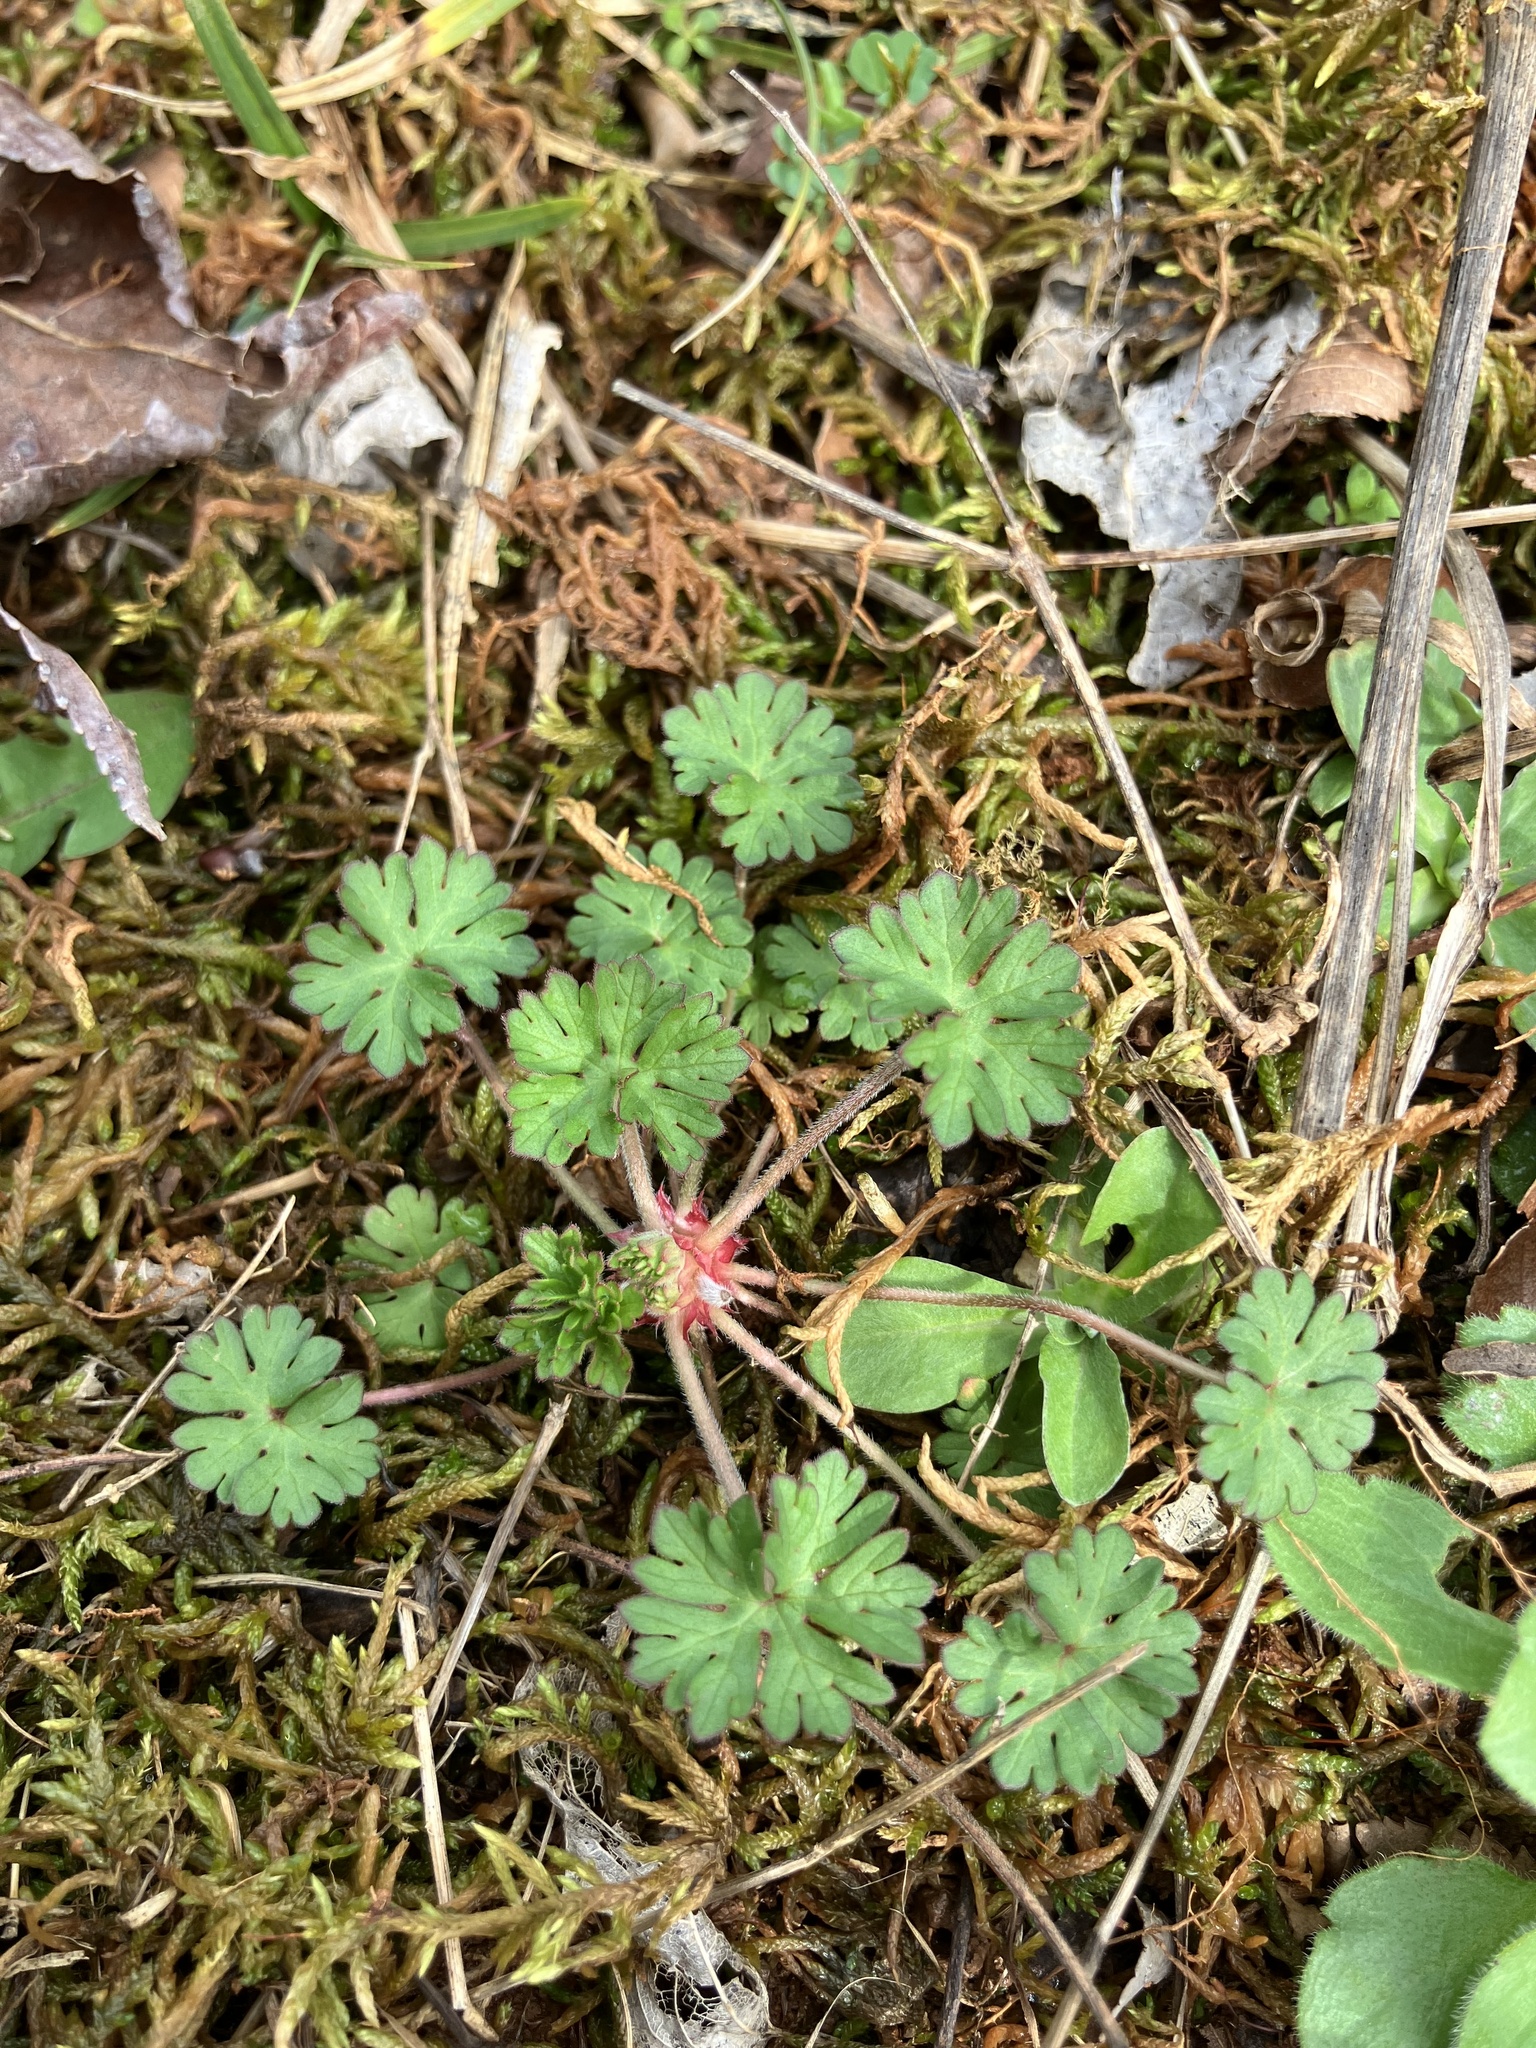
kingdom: Plantae
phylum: Tracheophyta
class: Magnoliopsida
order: Geraniales
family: Geraniaceae
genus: Geranium
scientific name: Geranium carolinianum
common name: Carolina crane's-bill
